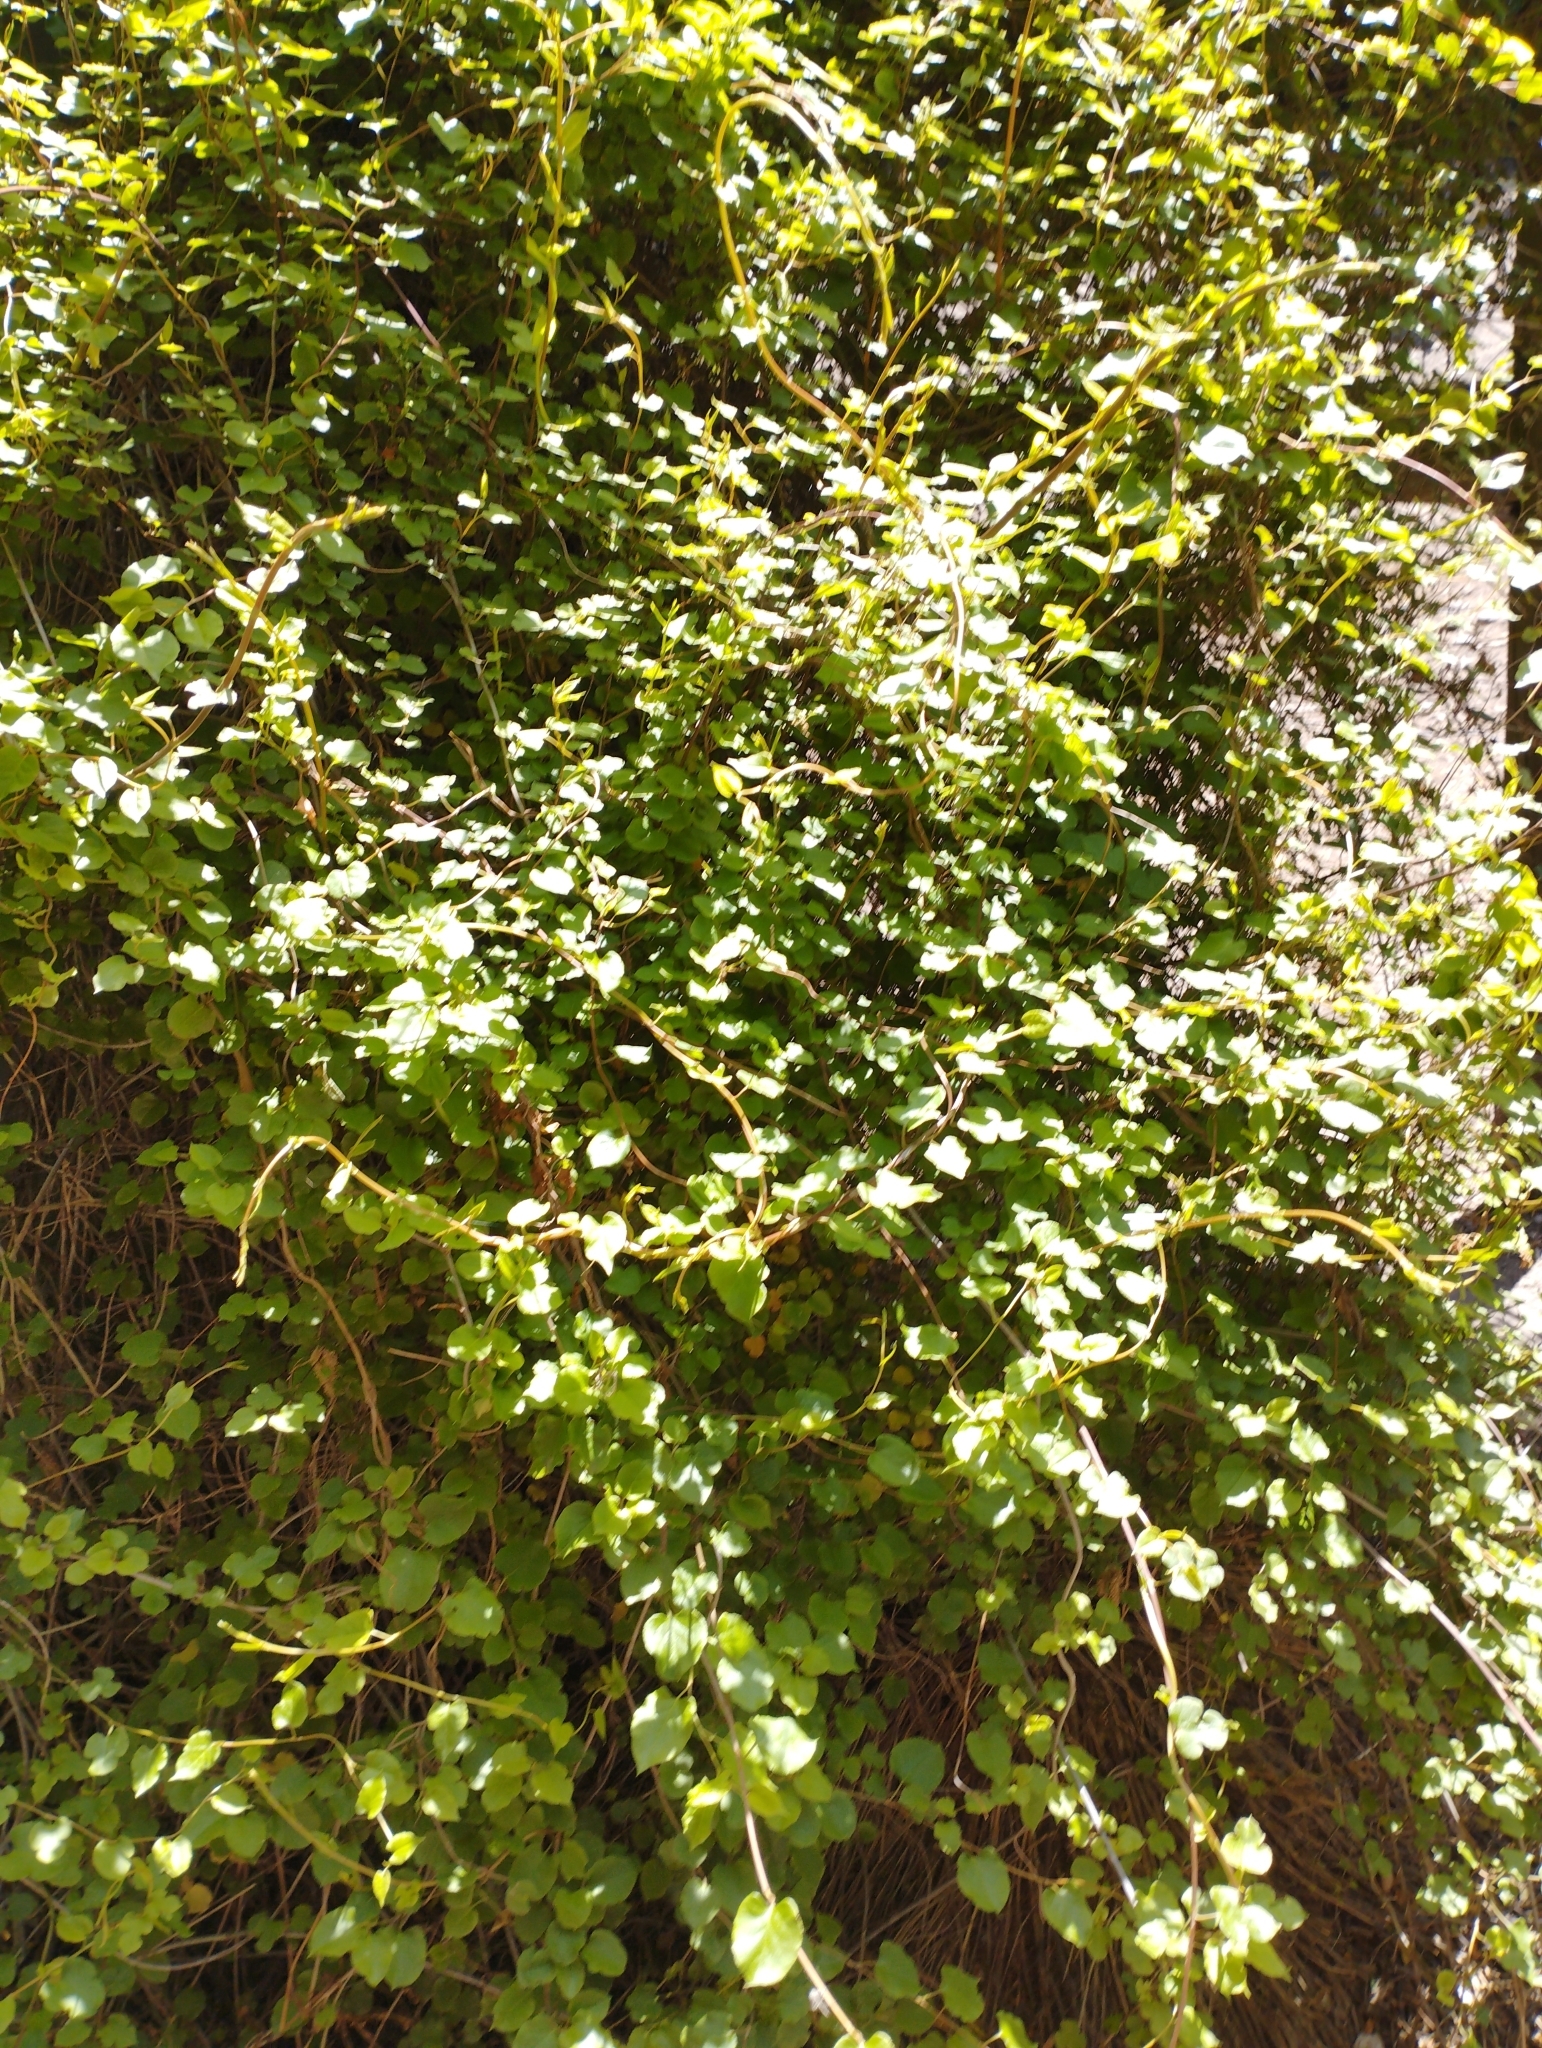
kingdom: Plantae
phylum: Tracheophyta
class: Magnoliopsida
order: Caryophyllales
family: Polygonaceae
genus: Muehlenbeckia
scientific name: Muehlenbeckia australis
